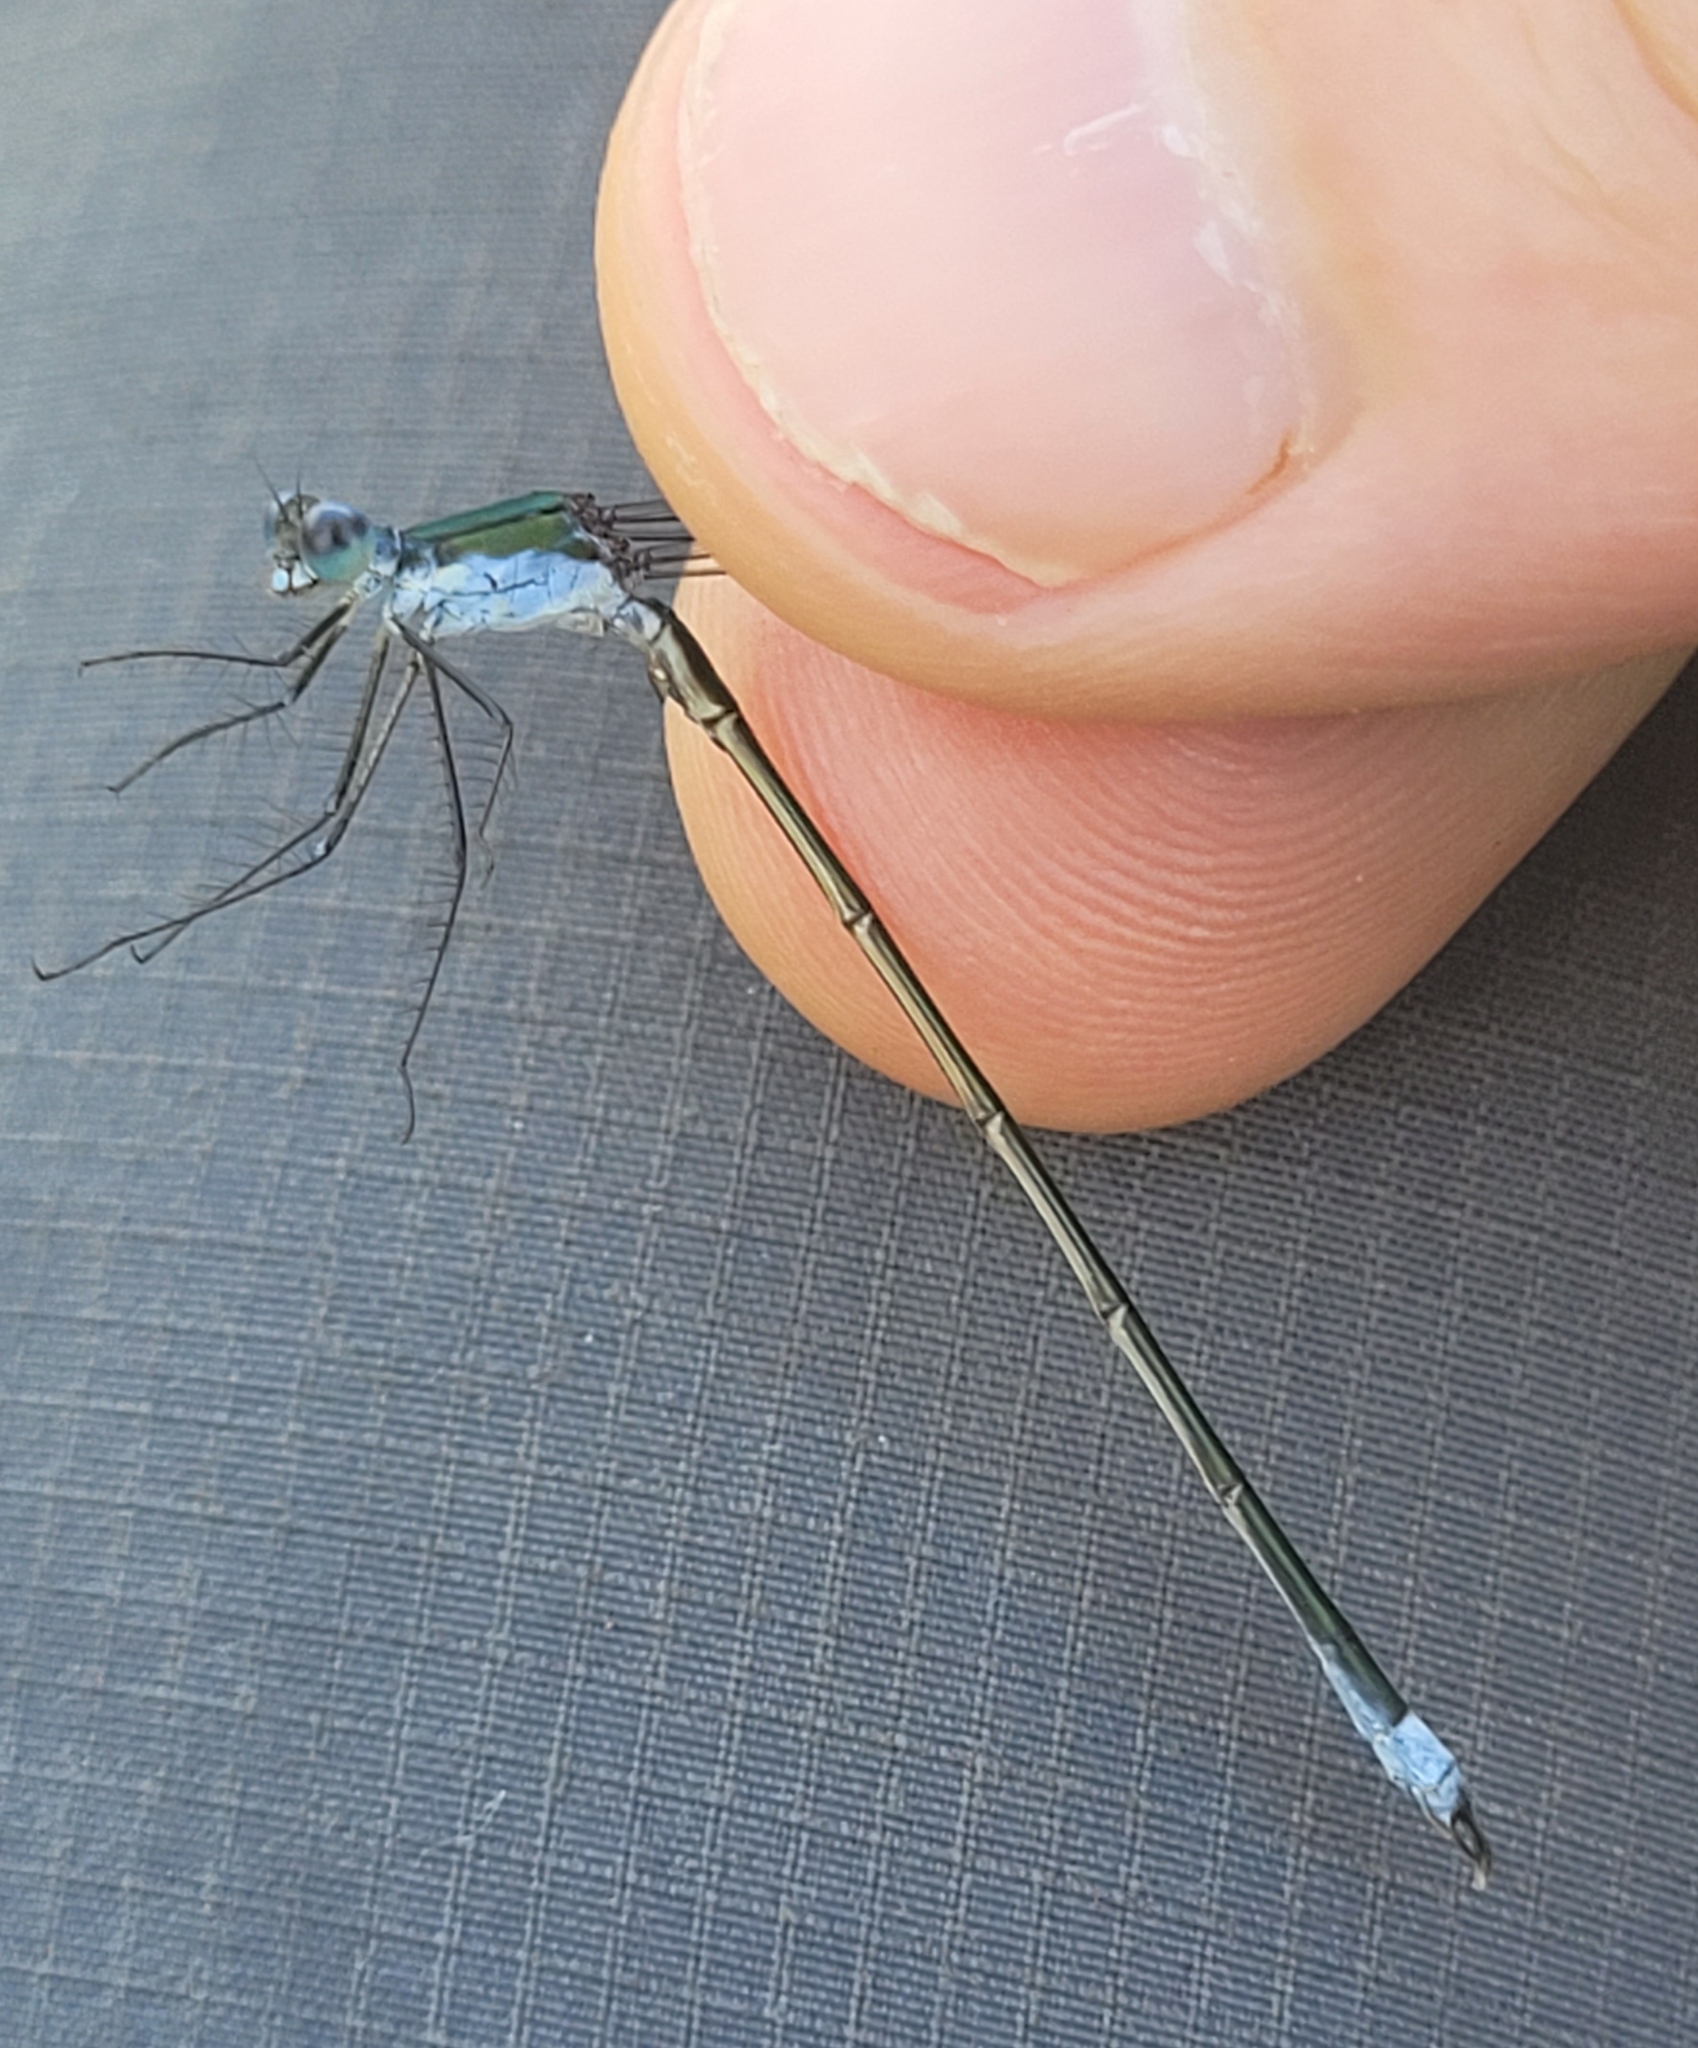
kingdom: Animalia
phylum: Arthropoda
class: Insecta
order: Odonata
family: Lestidae
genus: Lestes
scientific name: Lestes vigilax
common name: Swamp spreadwing
